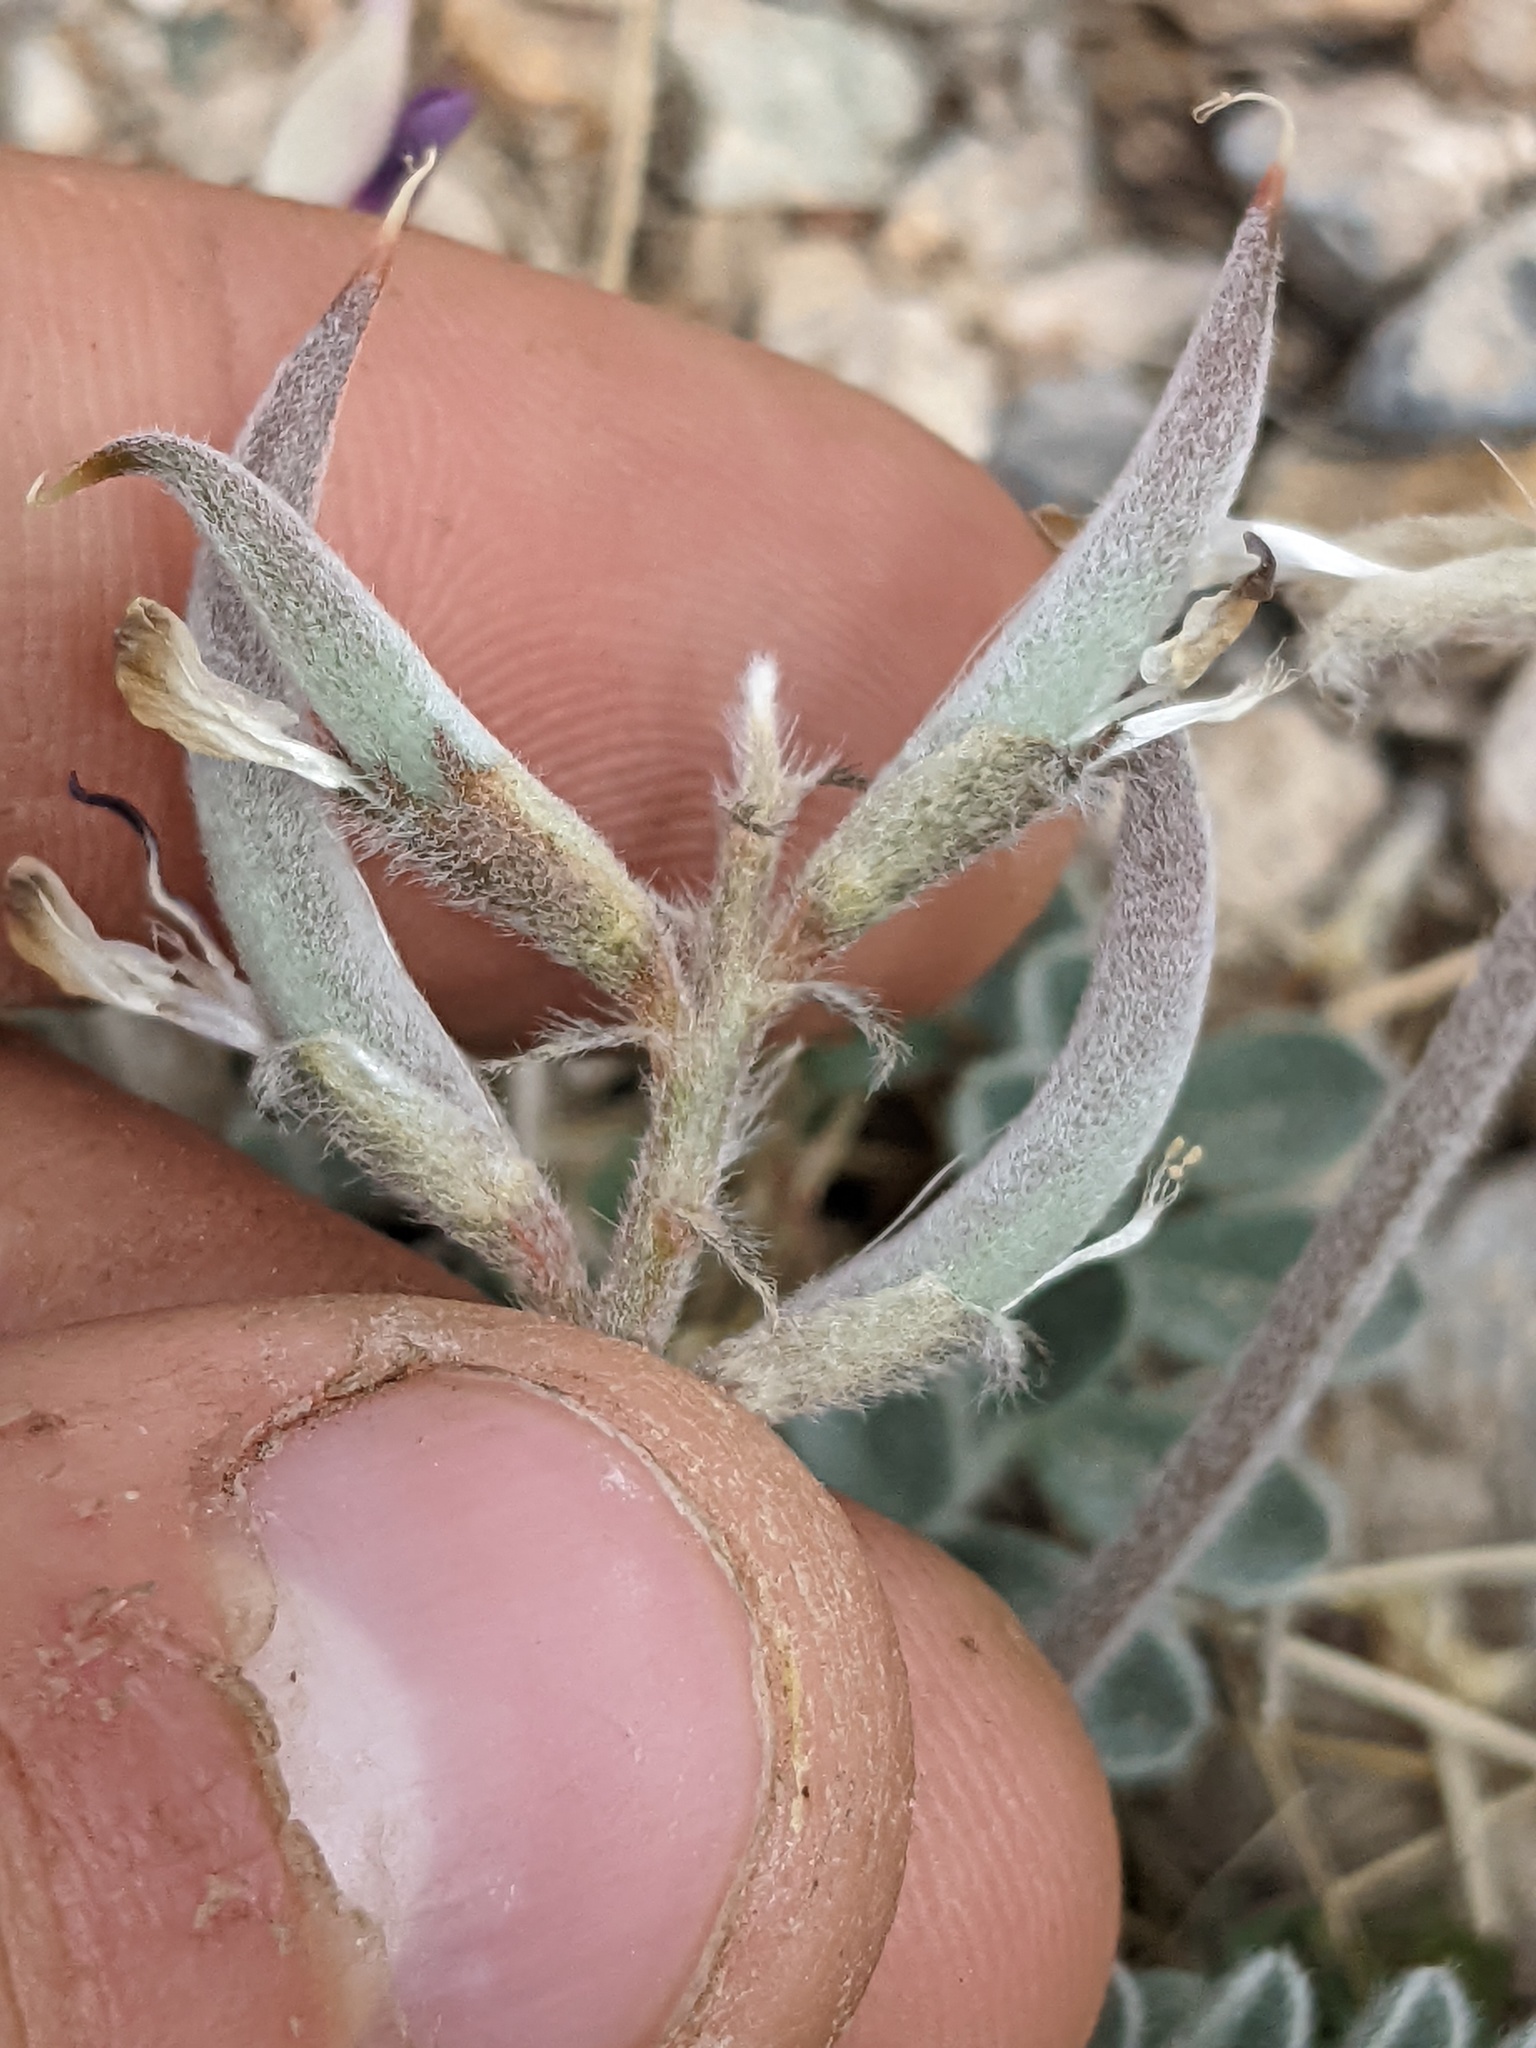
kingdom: Plantae
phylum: Tracheophyta
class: Magnoliopsida
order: Fabales
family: Fabaceae
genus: Astragalus
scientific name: Astragalus tidestromii
